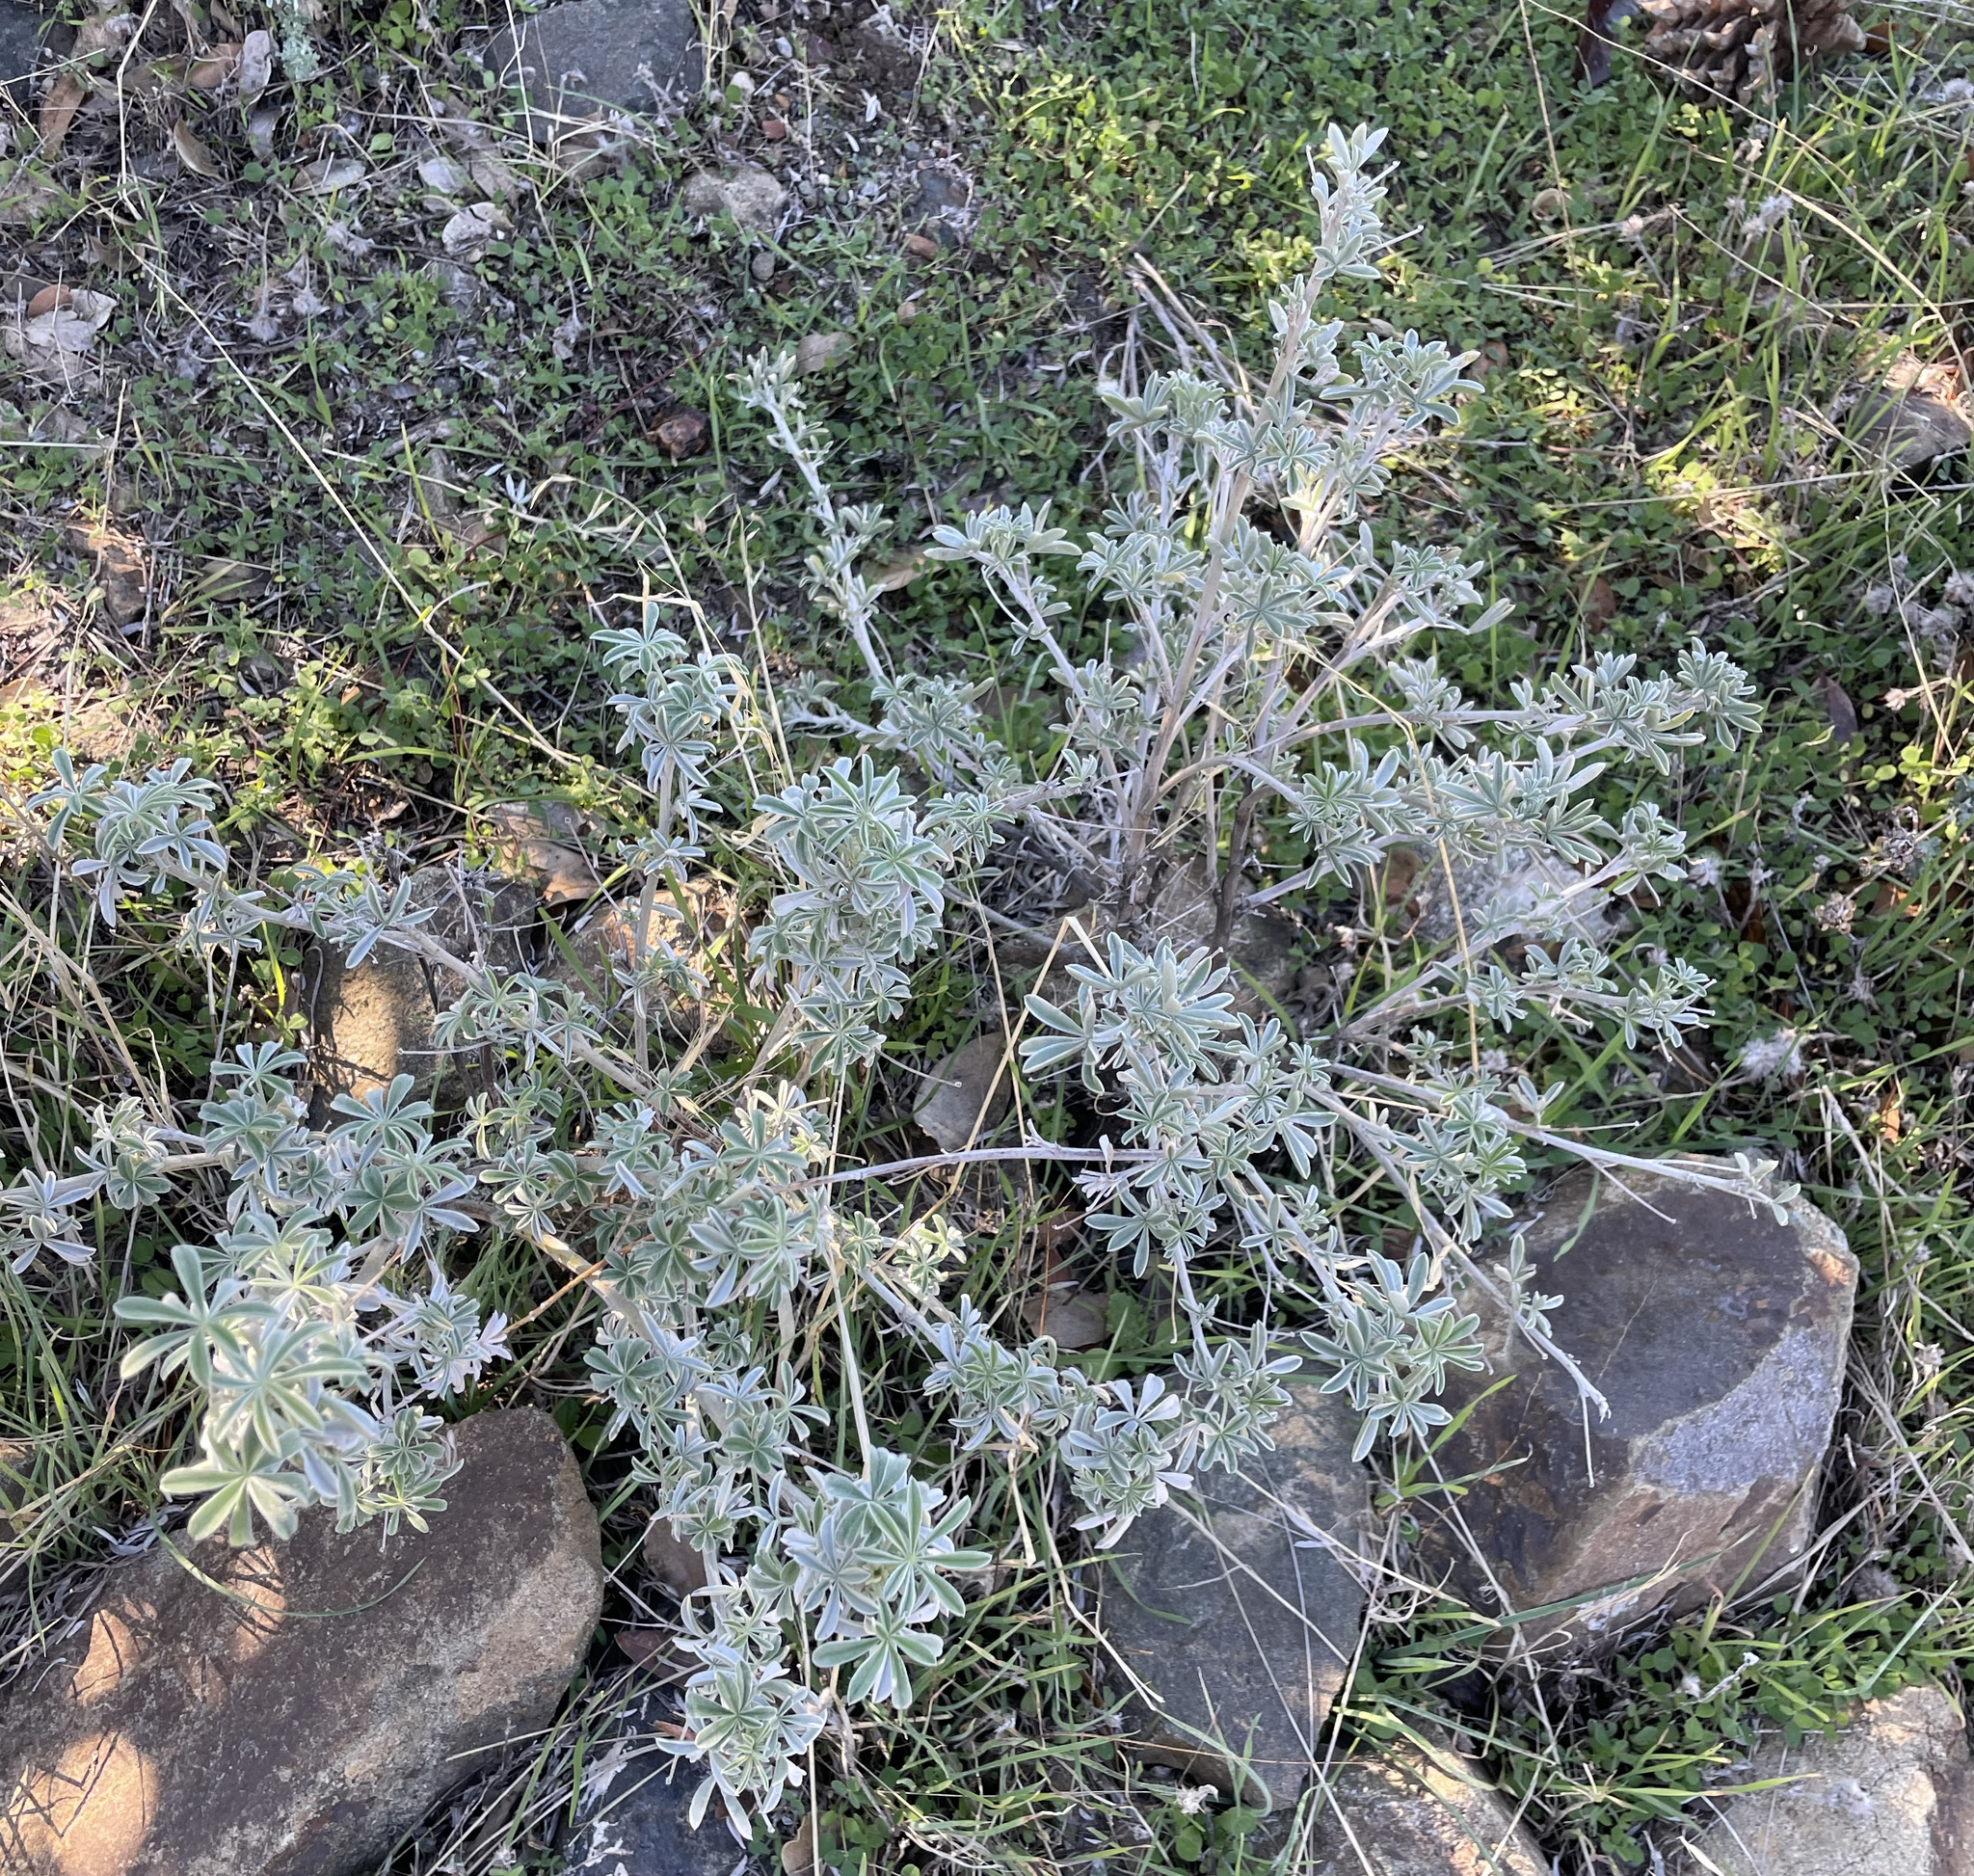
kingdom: Plantae
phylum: Tracheophyta
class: Magnoliopsida
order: Fabales
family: Fabaceae
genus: Lupinus
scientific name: Lupinus albifrons
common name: Foothill lupine
